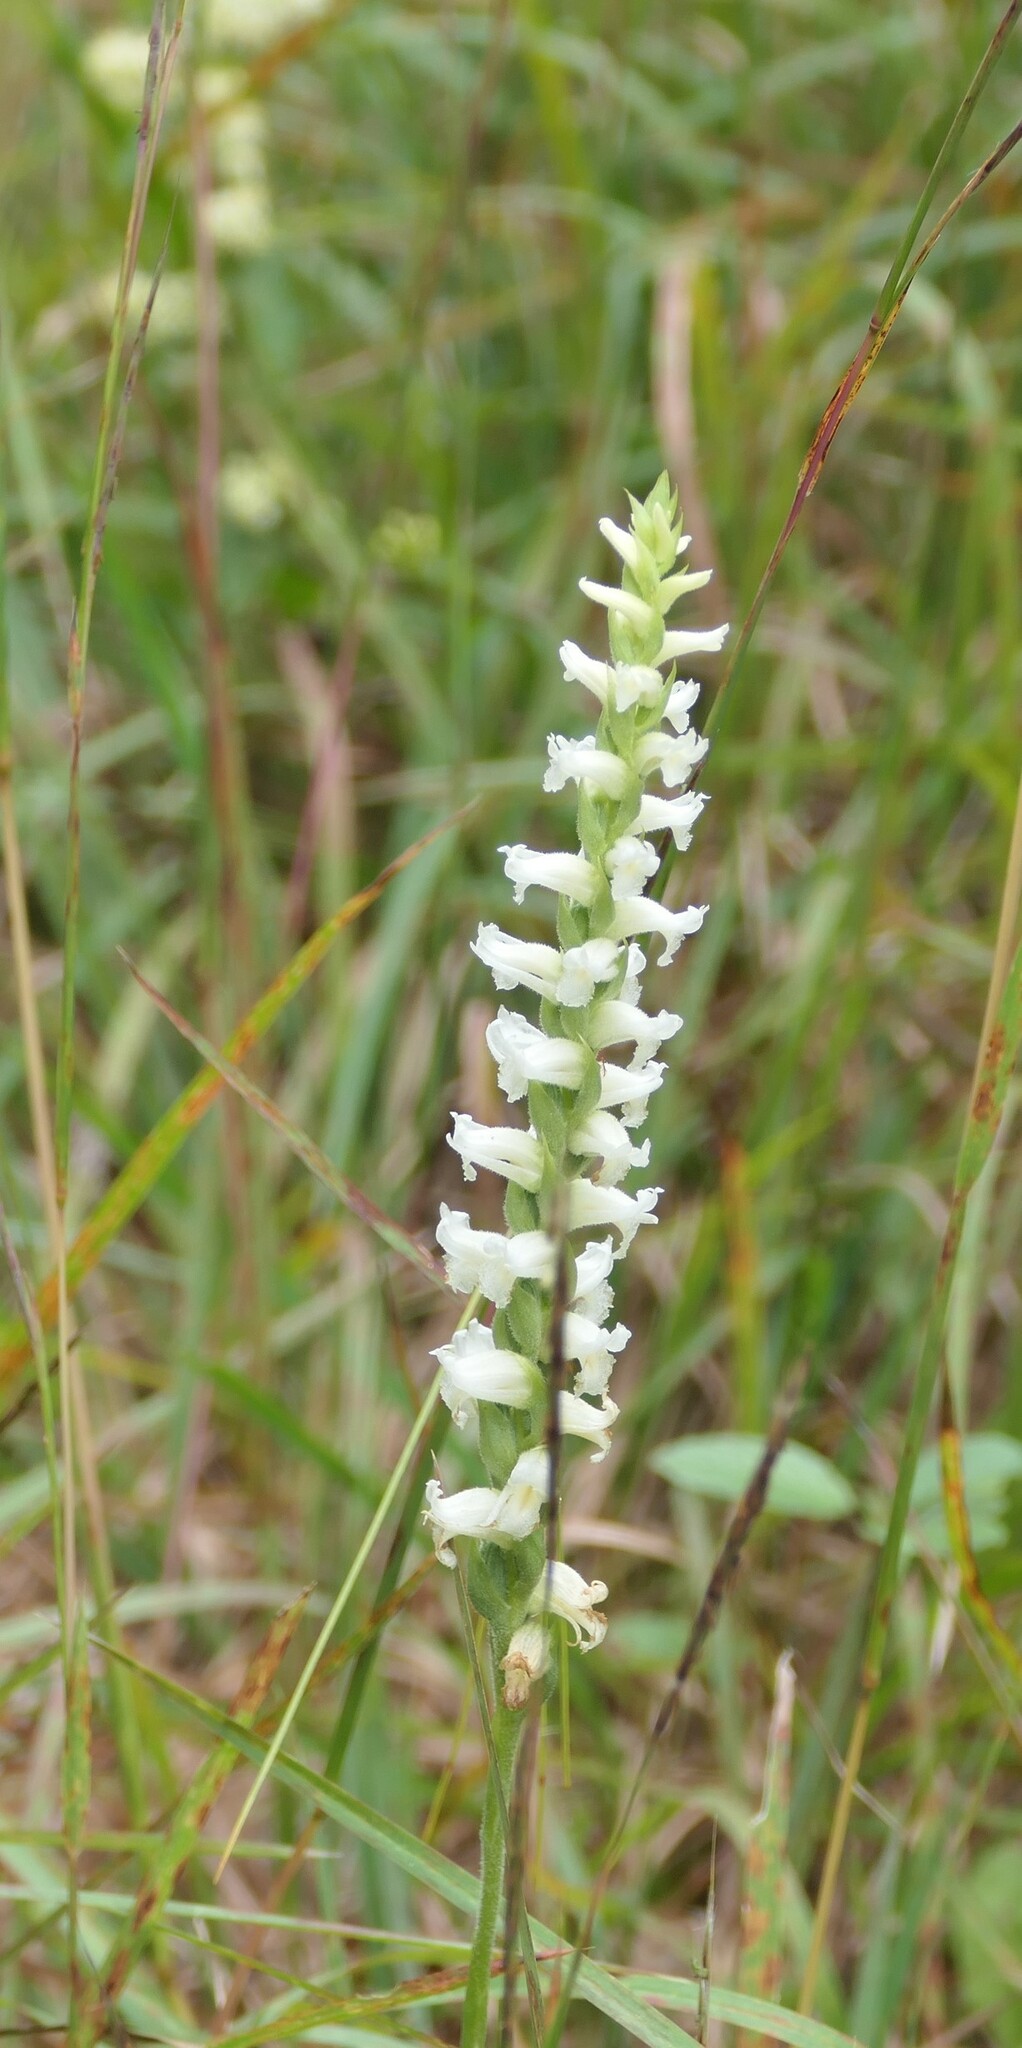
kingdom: Plantae
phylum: Tracheophyta
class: Liliopsida
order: Asparagales
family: Orchidaceae
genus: Spiranthes
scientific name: Spiranthes ochroleuca
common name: Yellow ladies'-tresses
